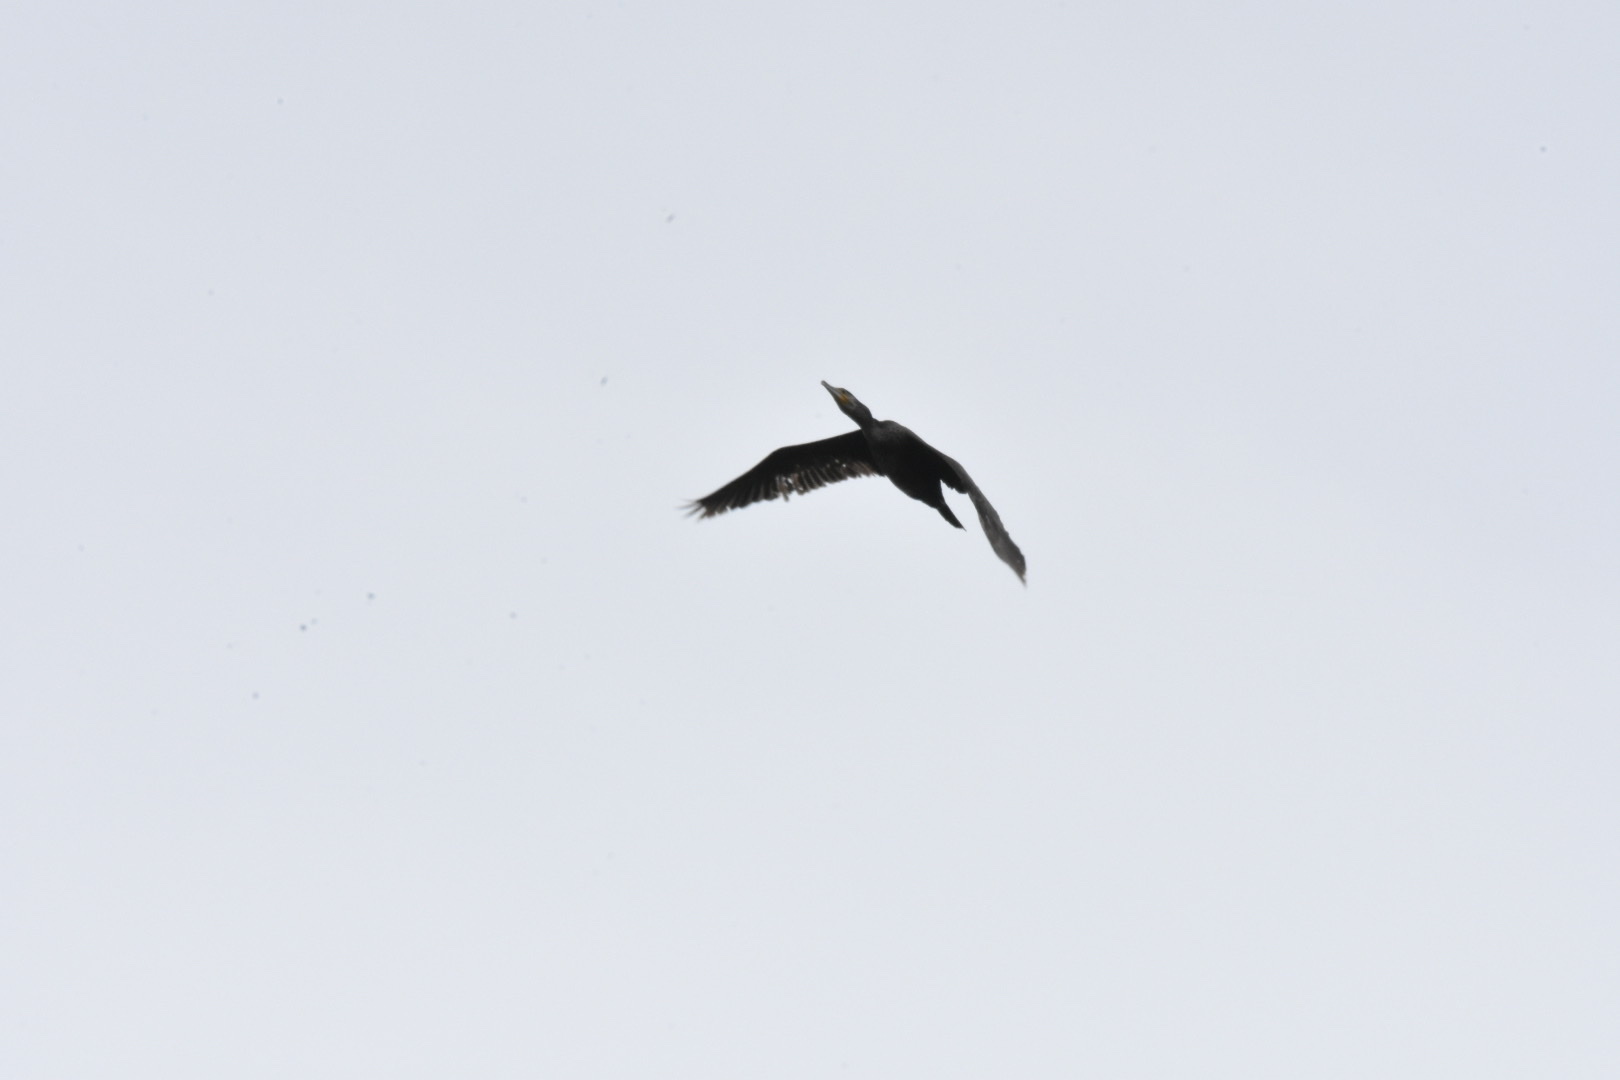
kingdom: Animalia
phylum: Chordata
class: Aves
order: Suliformes
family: Phalacrocoracidae
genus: Phalacrocorax
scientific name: Phalacrocorax carbo
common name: Great cormorant
